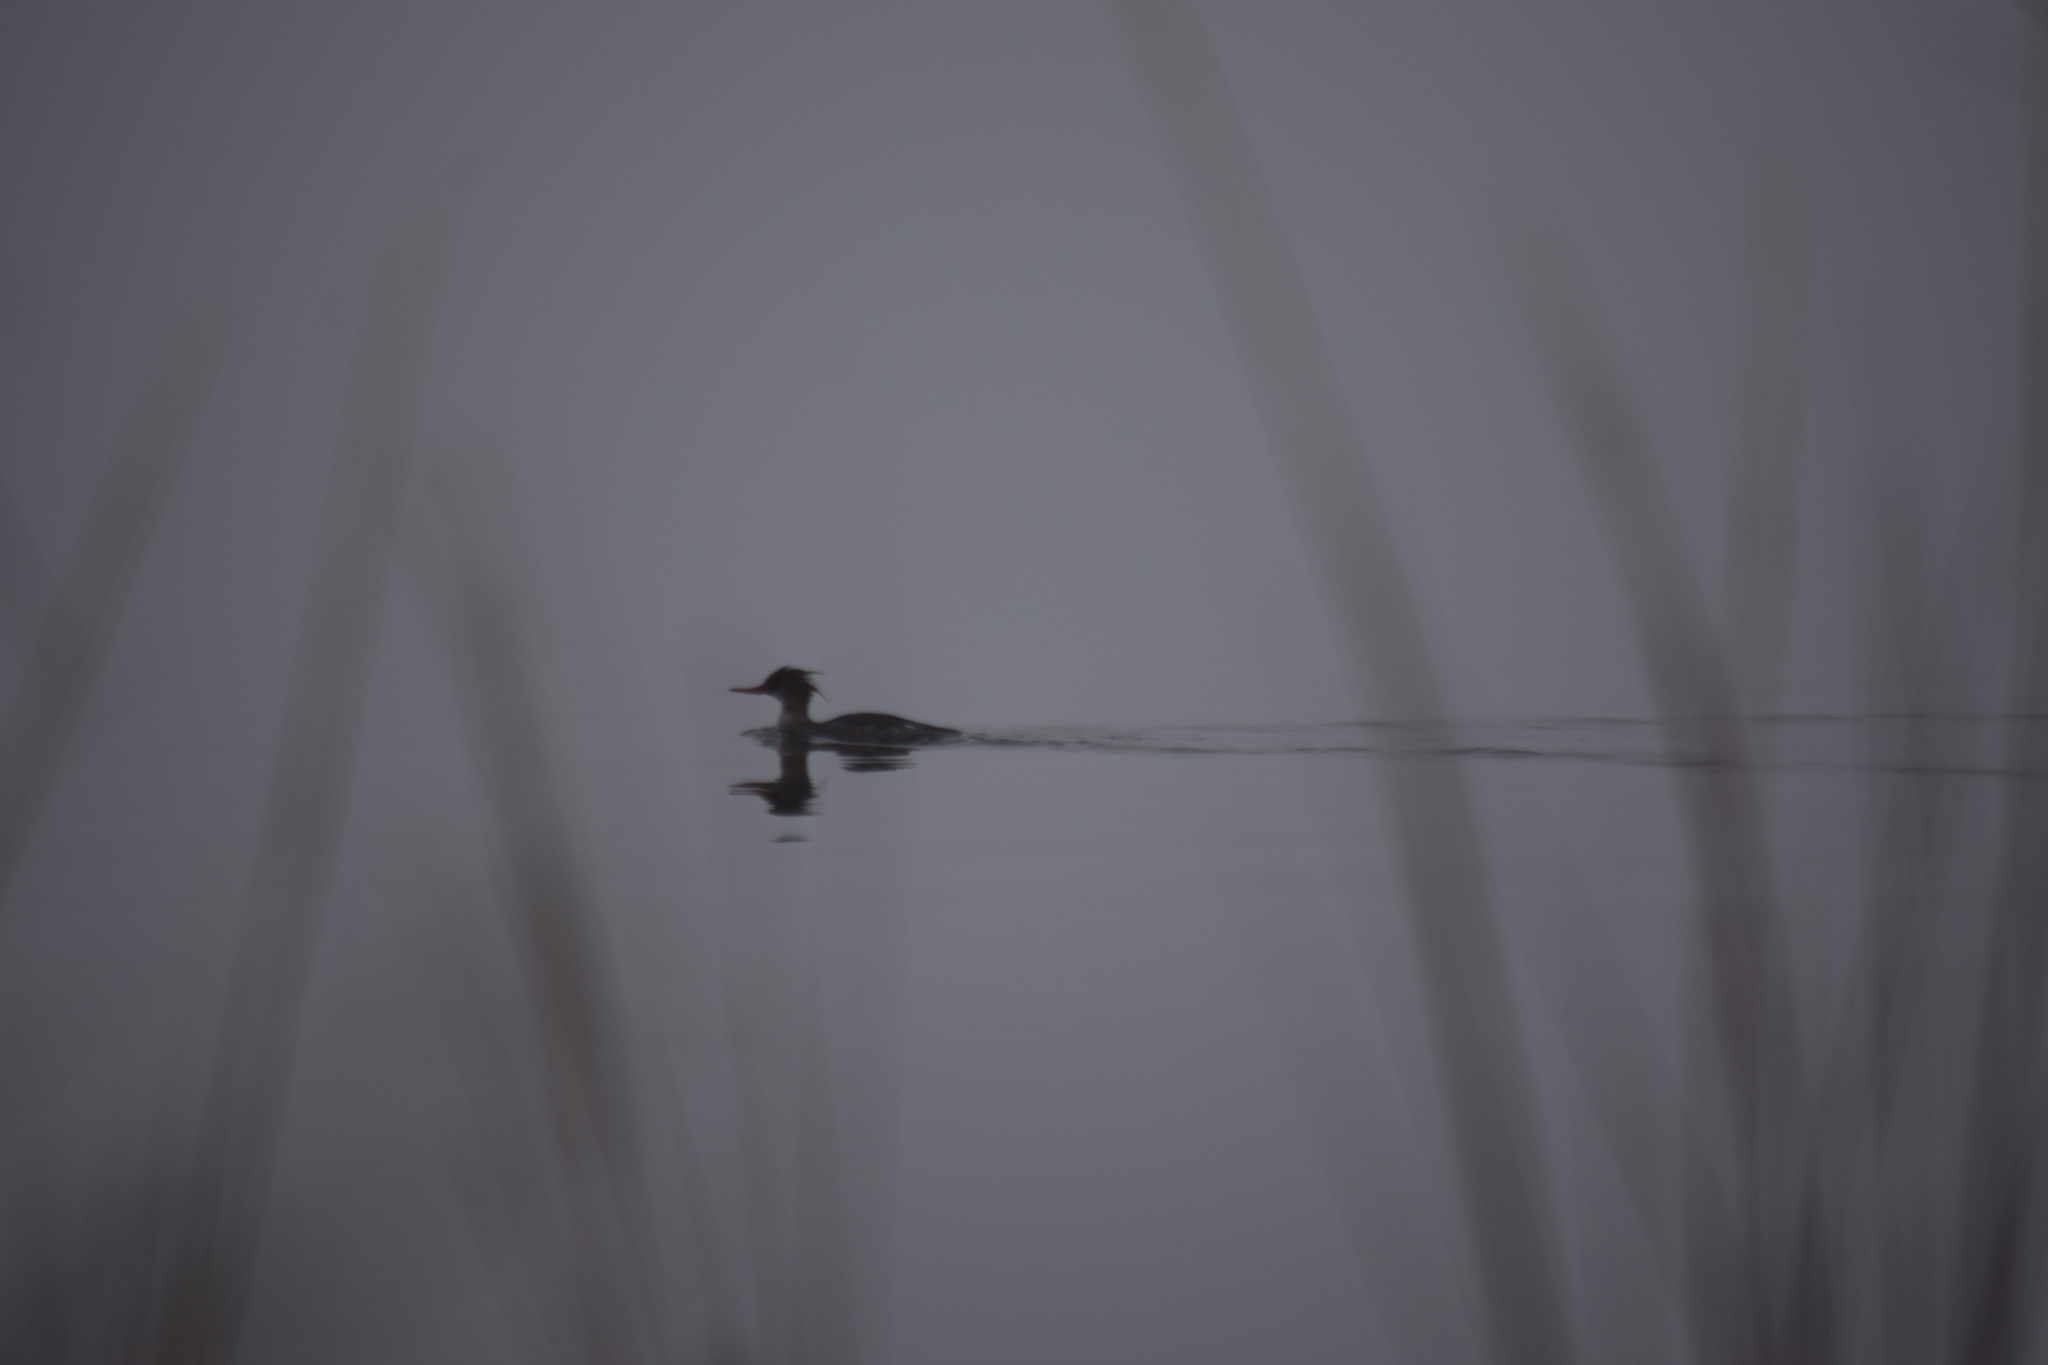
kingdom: Animalia
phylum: Chordata
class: Aves
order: Anseriformes
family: Anatidae
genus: Mergus
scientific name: Mergus serrator
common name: Red-breasted merganser
